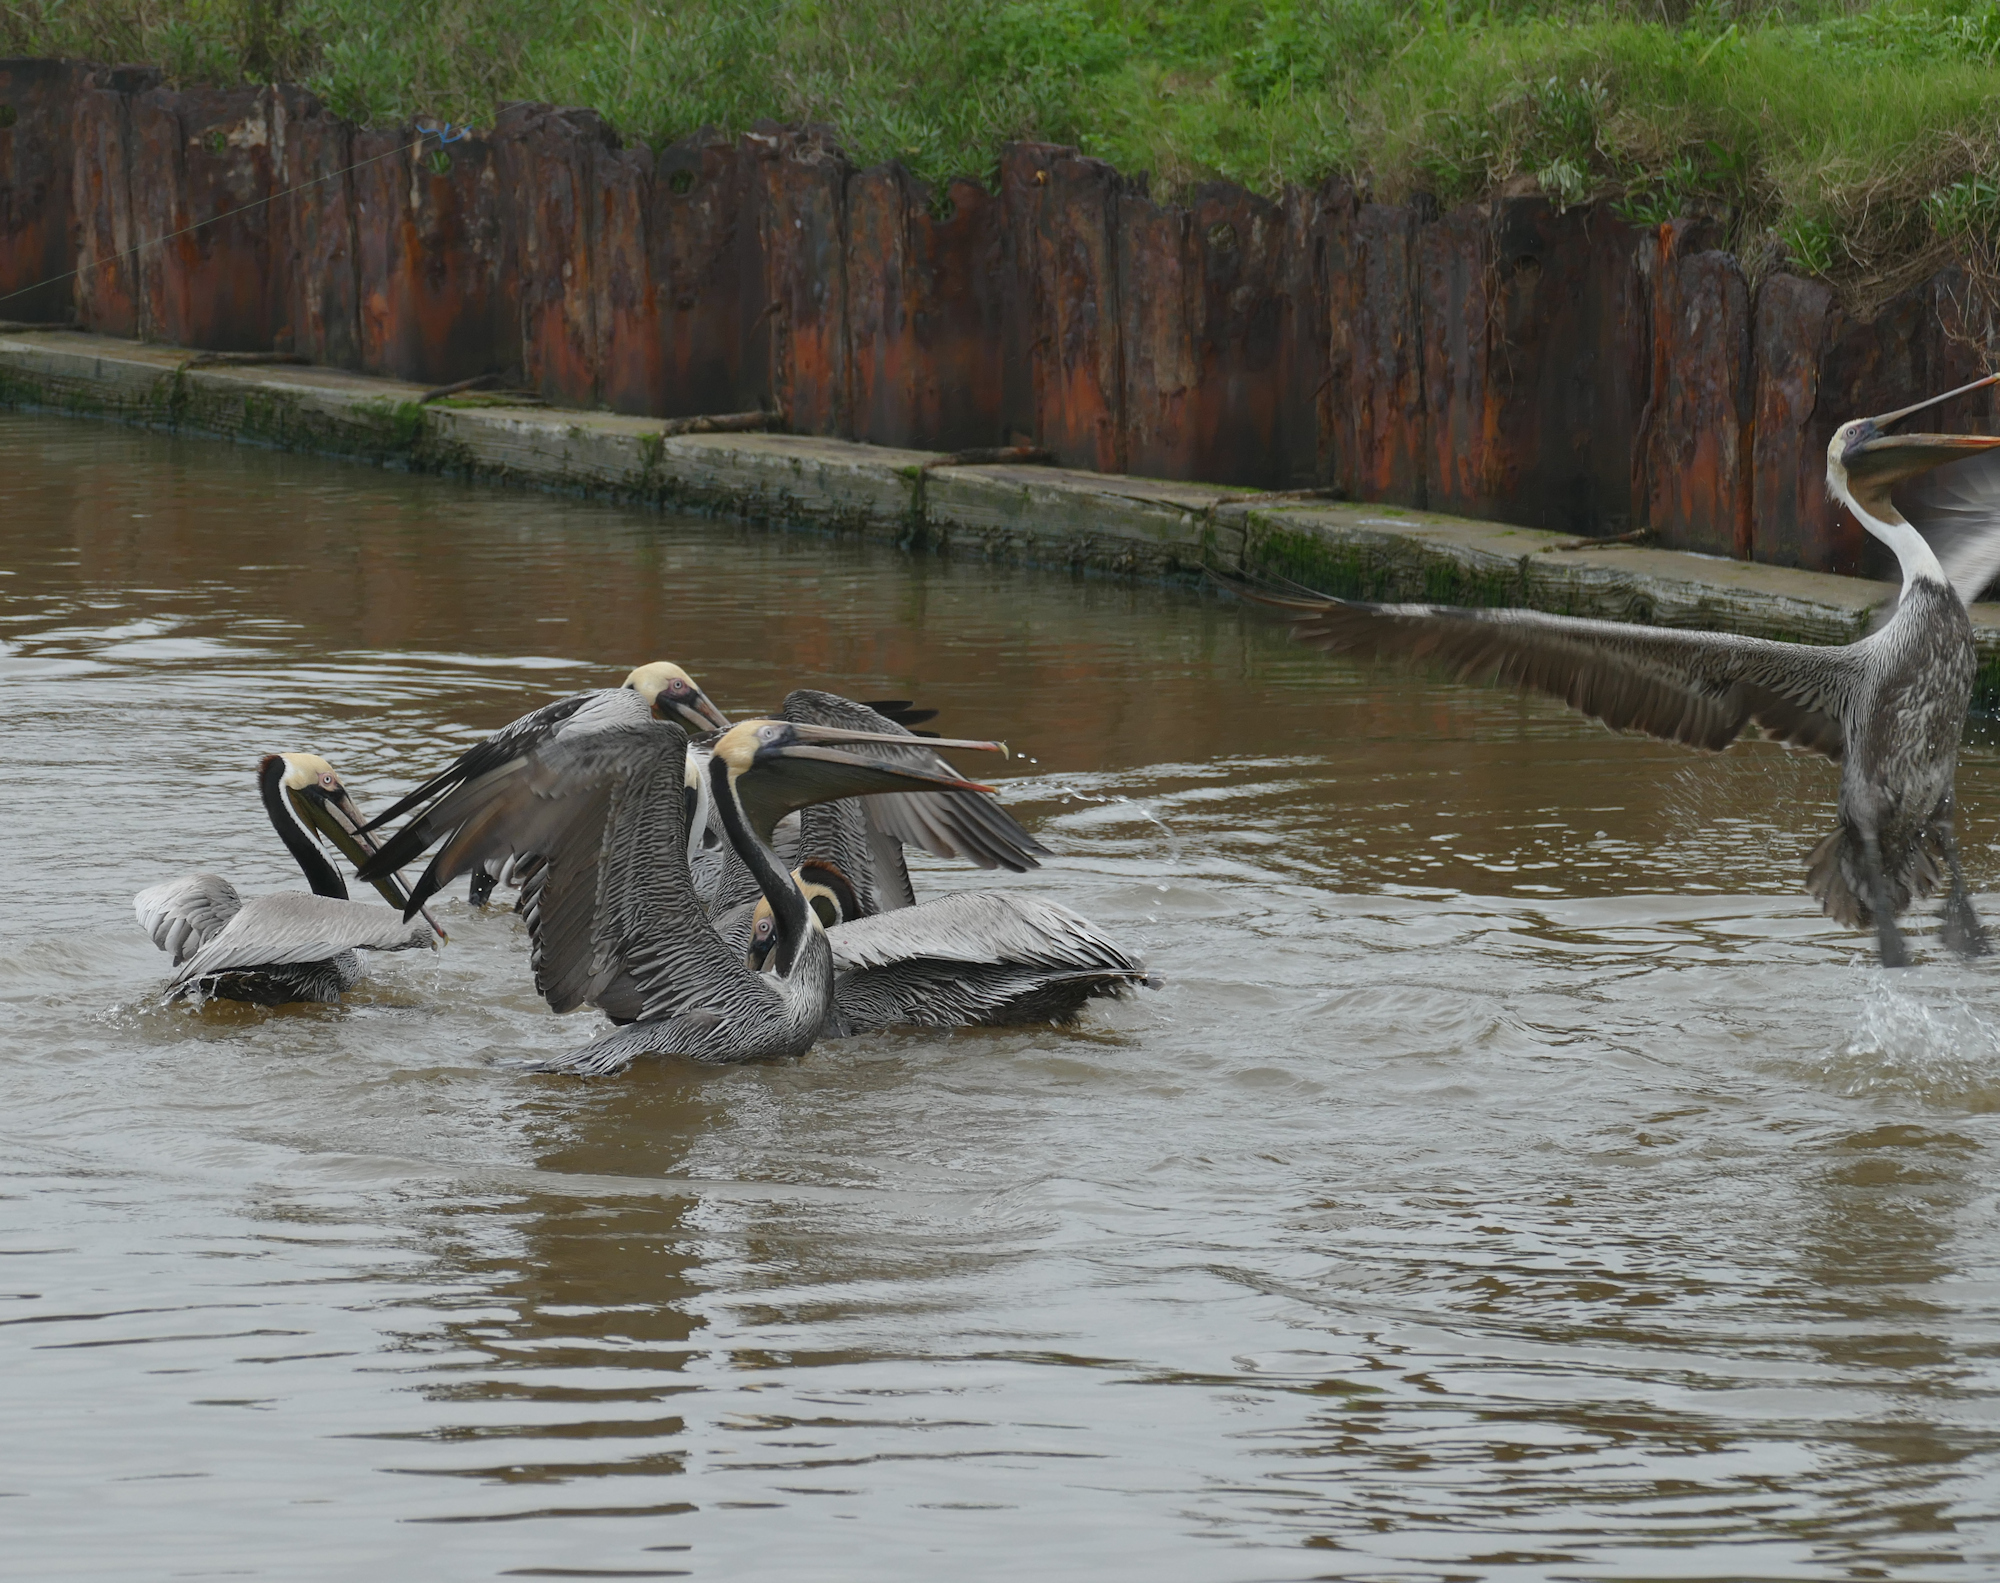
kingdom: Animalia
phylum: Chordata
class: Aves
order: Pelecaniformes
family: Pelecanidae
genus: Pelecanus
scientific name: Pelecanus occidentalis
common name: Brown pelican
